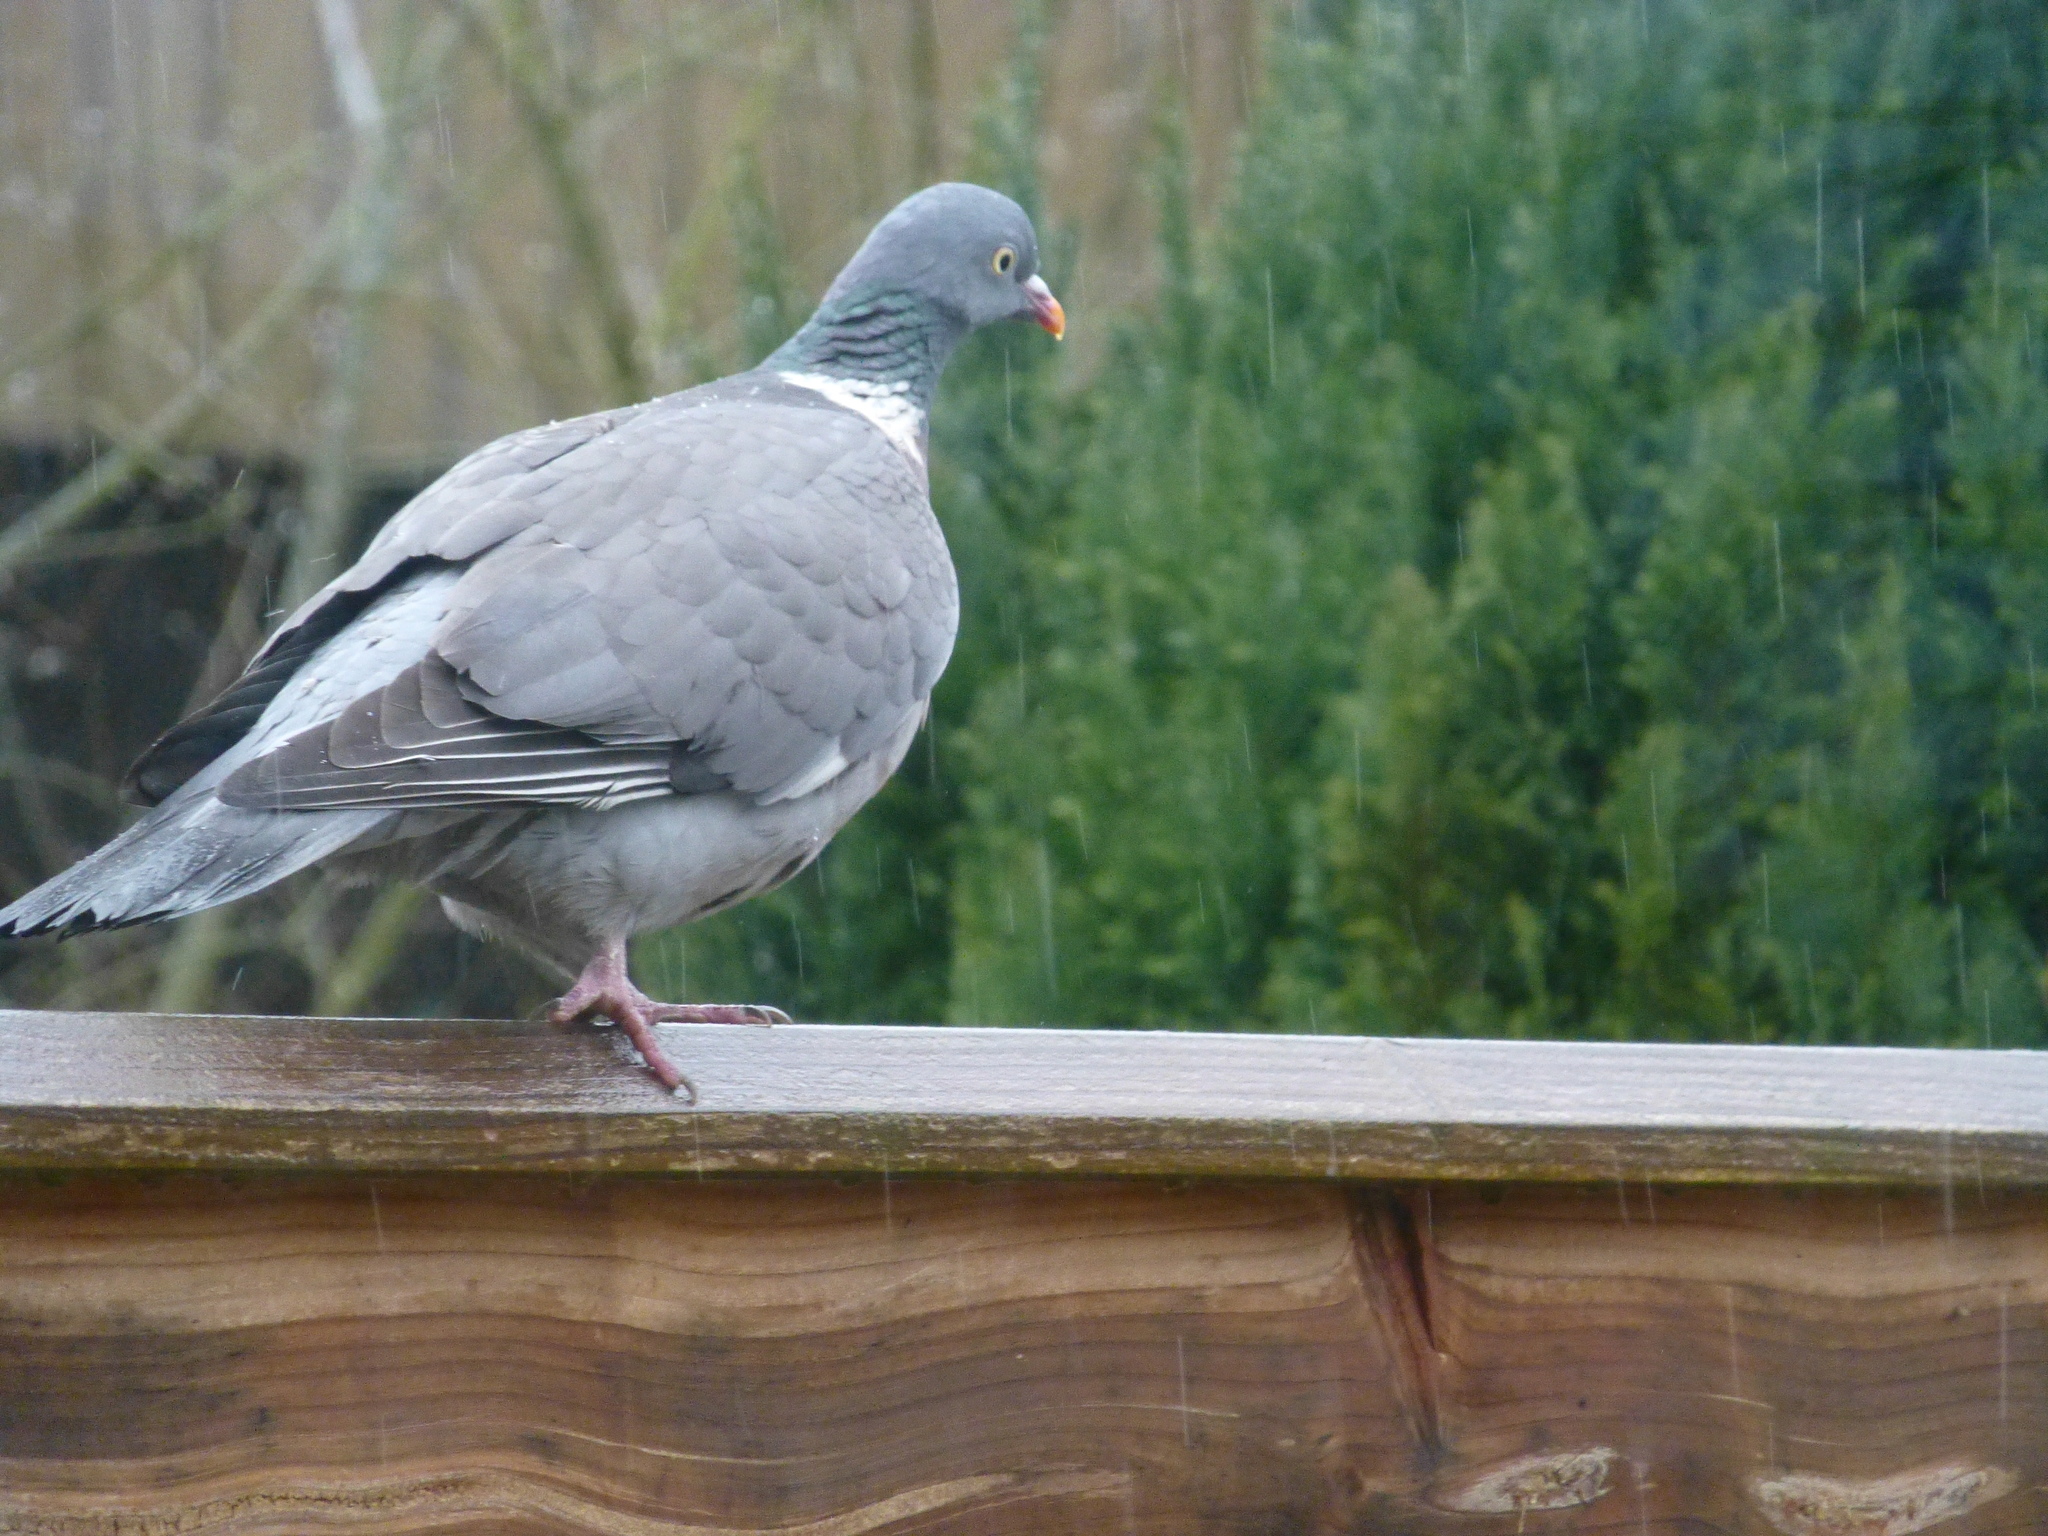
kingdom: Animalia
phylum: Chordata
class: Aves
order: Columbiformes
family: Columbidae
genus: Columba
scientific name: Columba palumbus
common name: Common wood pigeon
